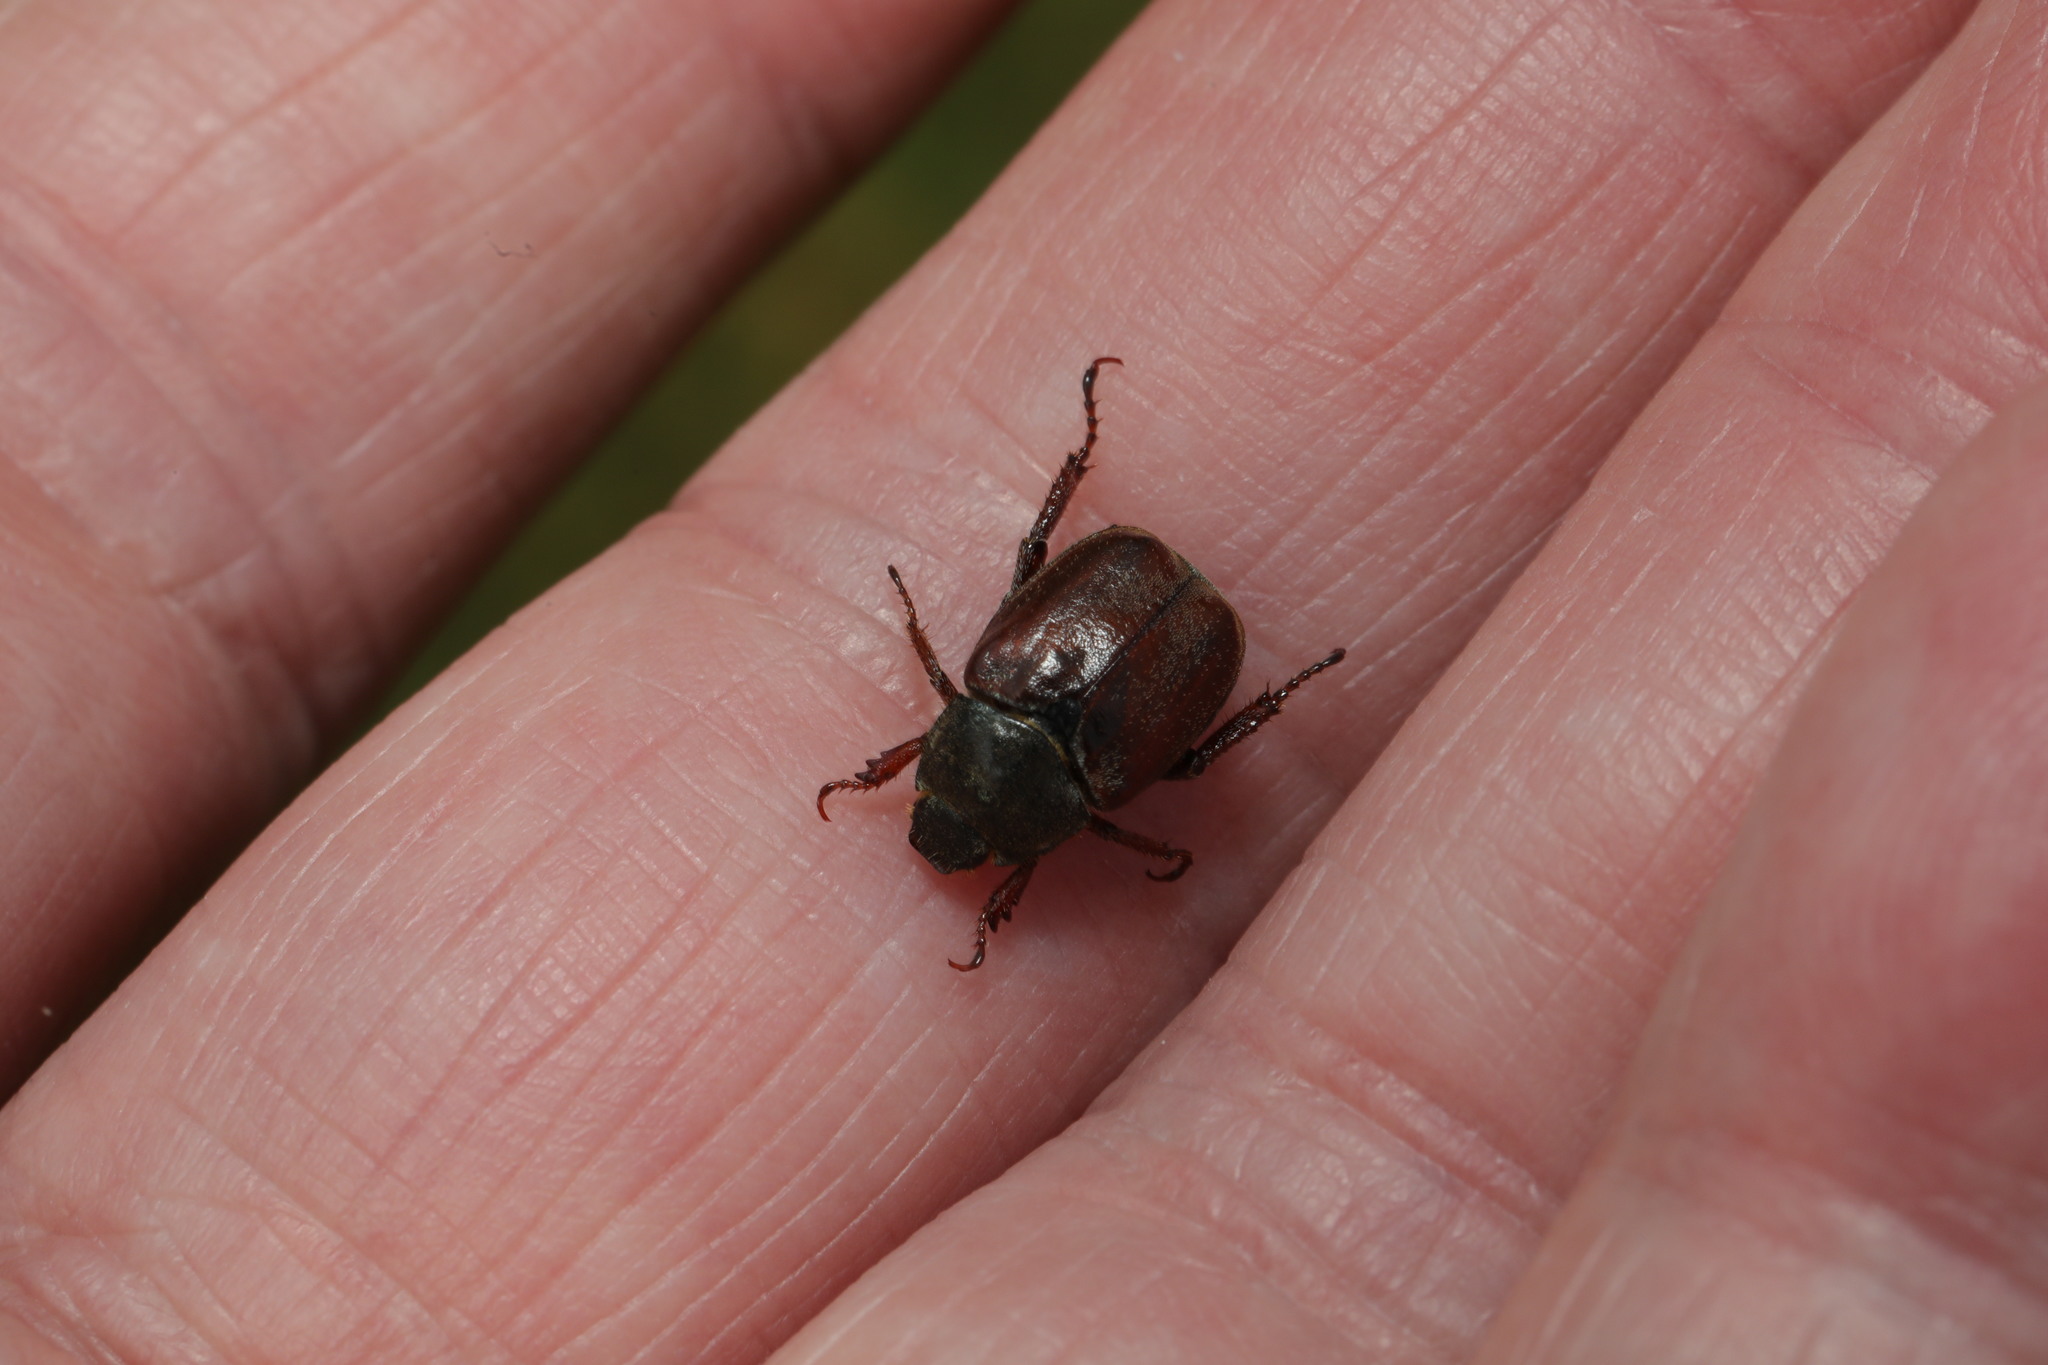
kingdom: Animalia
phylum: Arthropoda
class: Insecta
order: Coleoptera
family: Scarabaeidae
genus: Hoplia
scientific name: Hoplia philanthus
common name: Welsh chafer
